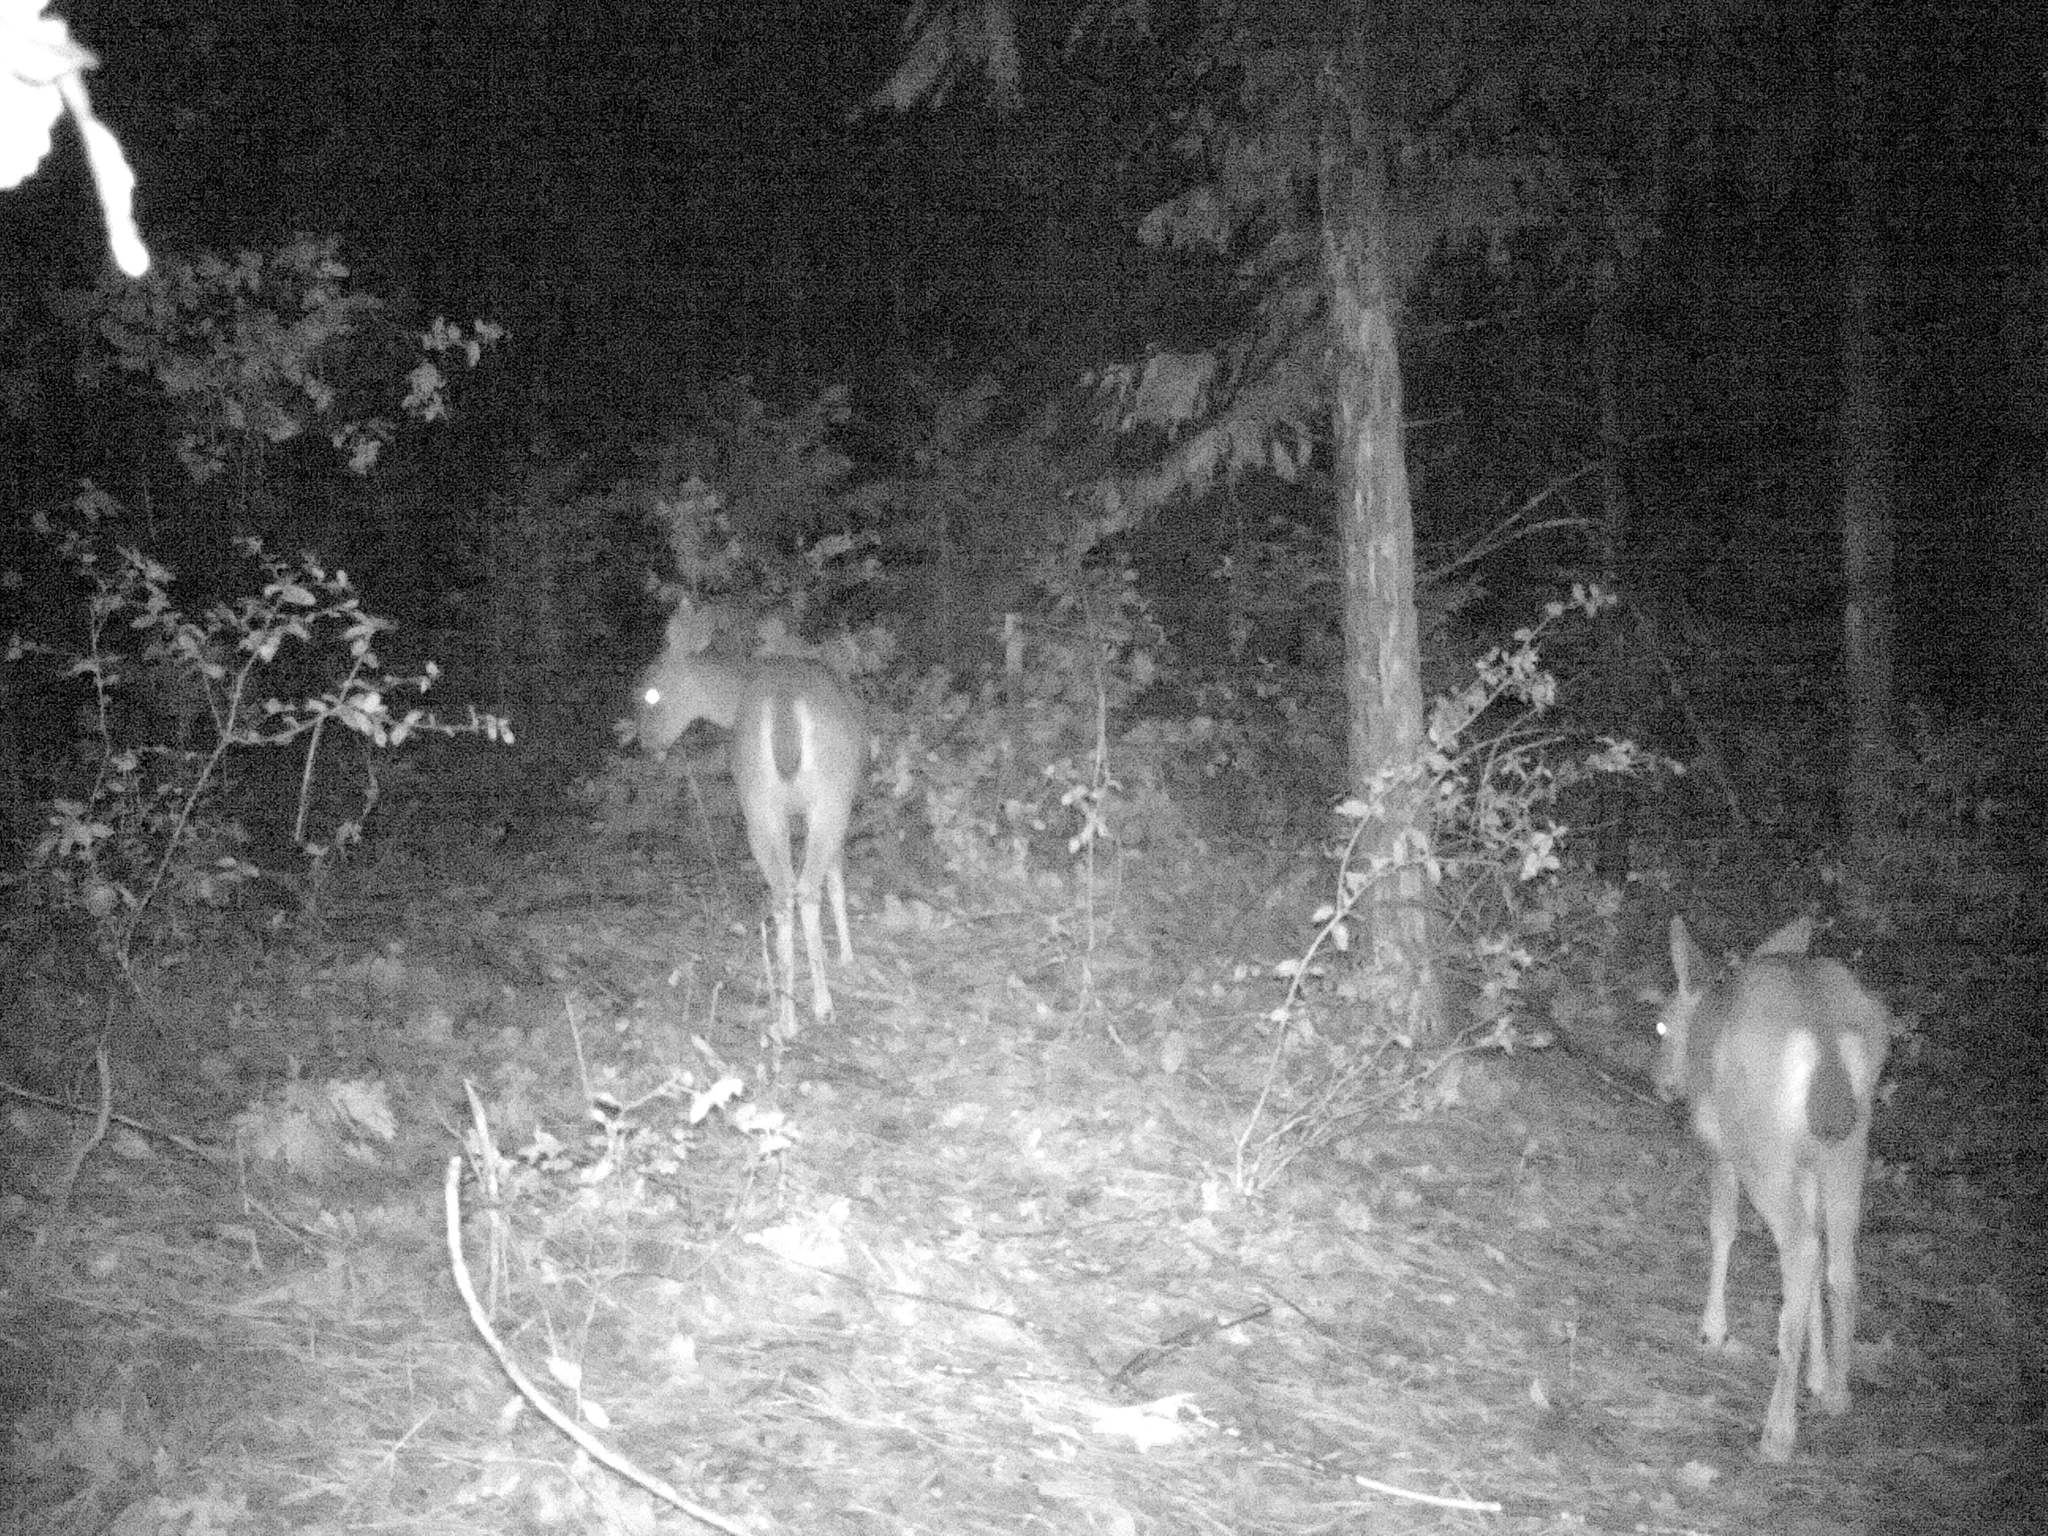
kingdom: Animalia
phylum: Chordata
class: Mammalia
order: Artiodactyla
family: Cervidae
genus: Odocoileus
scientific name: Odocoileus hemionus
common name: Mule deer
